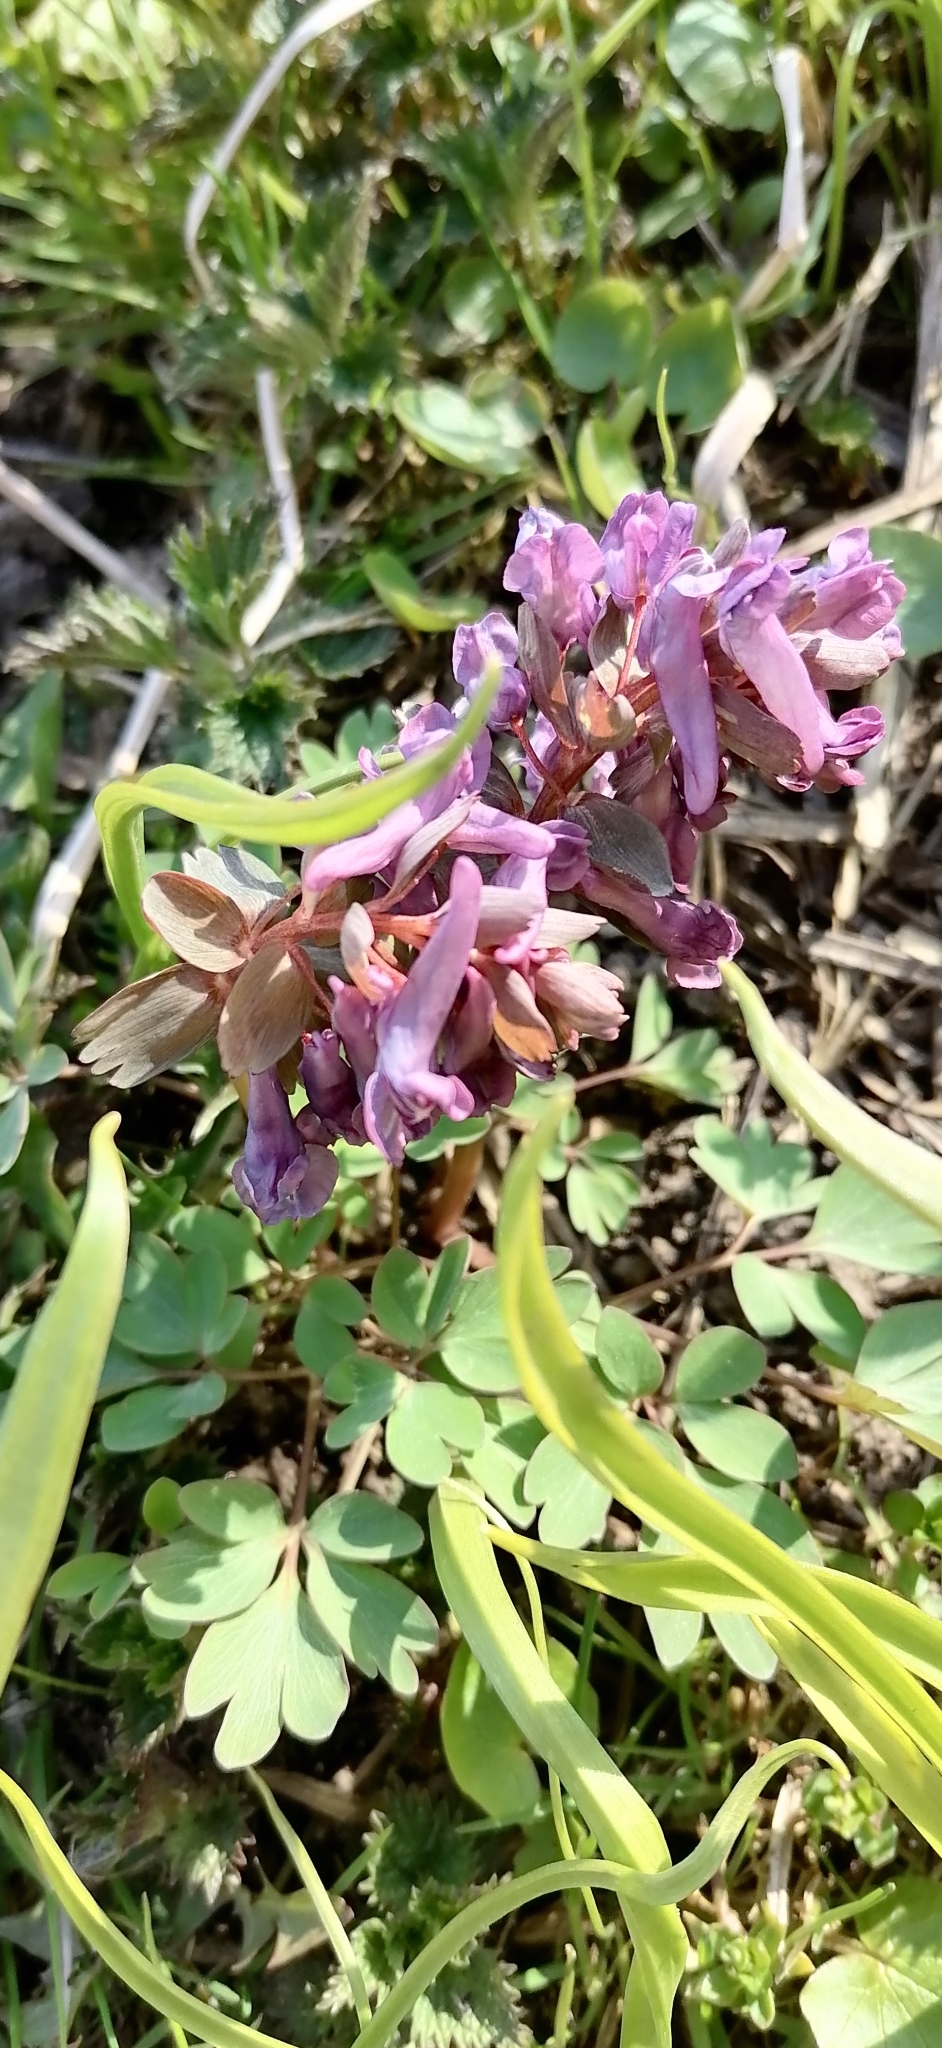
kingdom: Plantae
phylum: Tracheophyta
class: Magnoliopsida
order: Ranunculales
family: Papaveraceae
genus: Corydalis
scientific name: Corydalis solida
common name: Bird-in-a-bush
